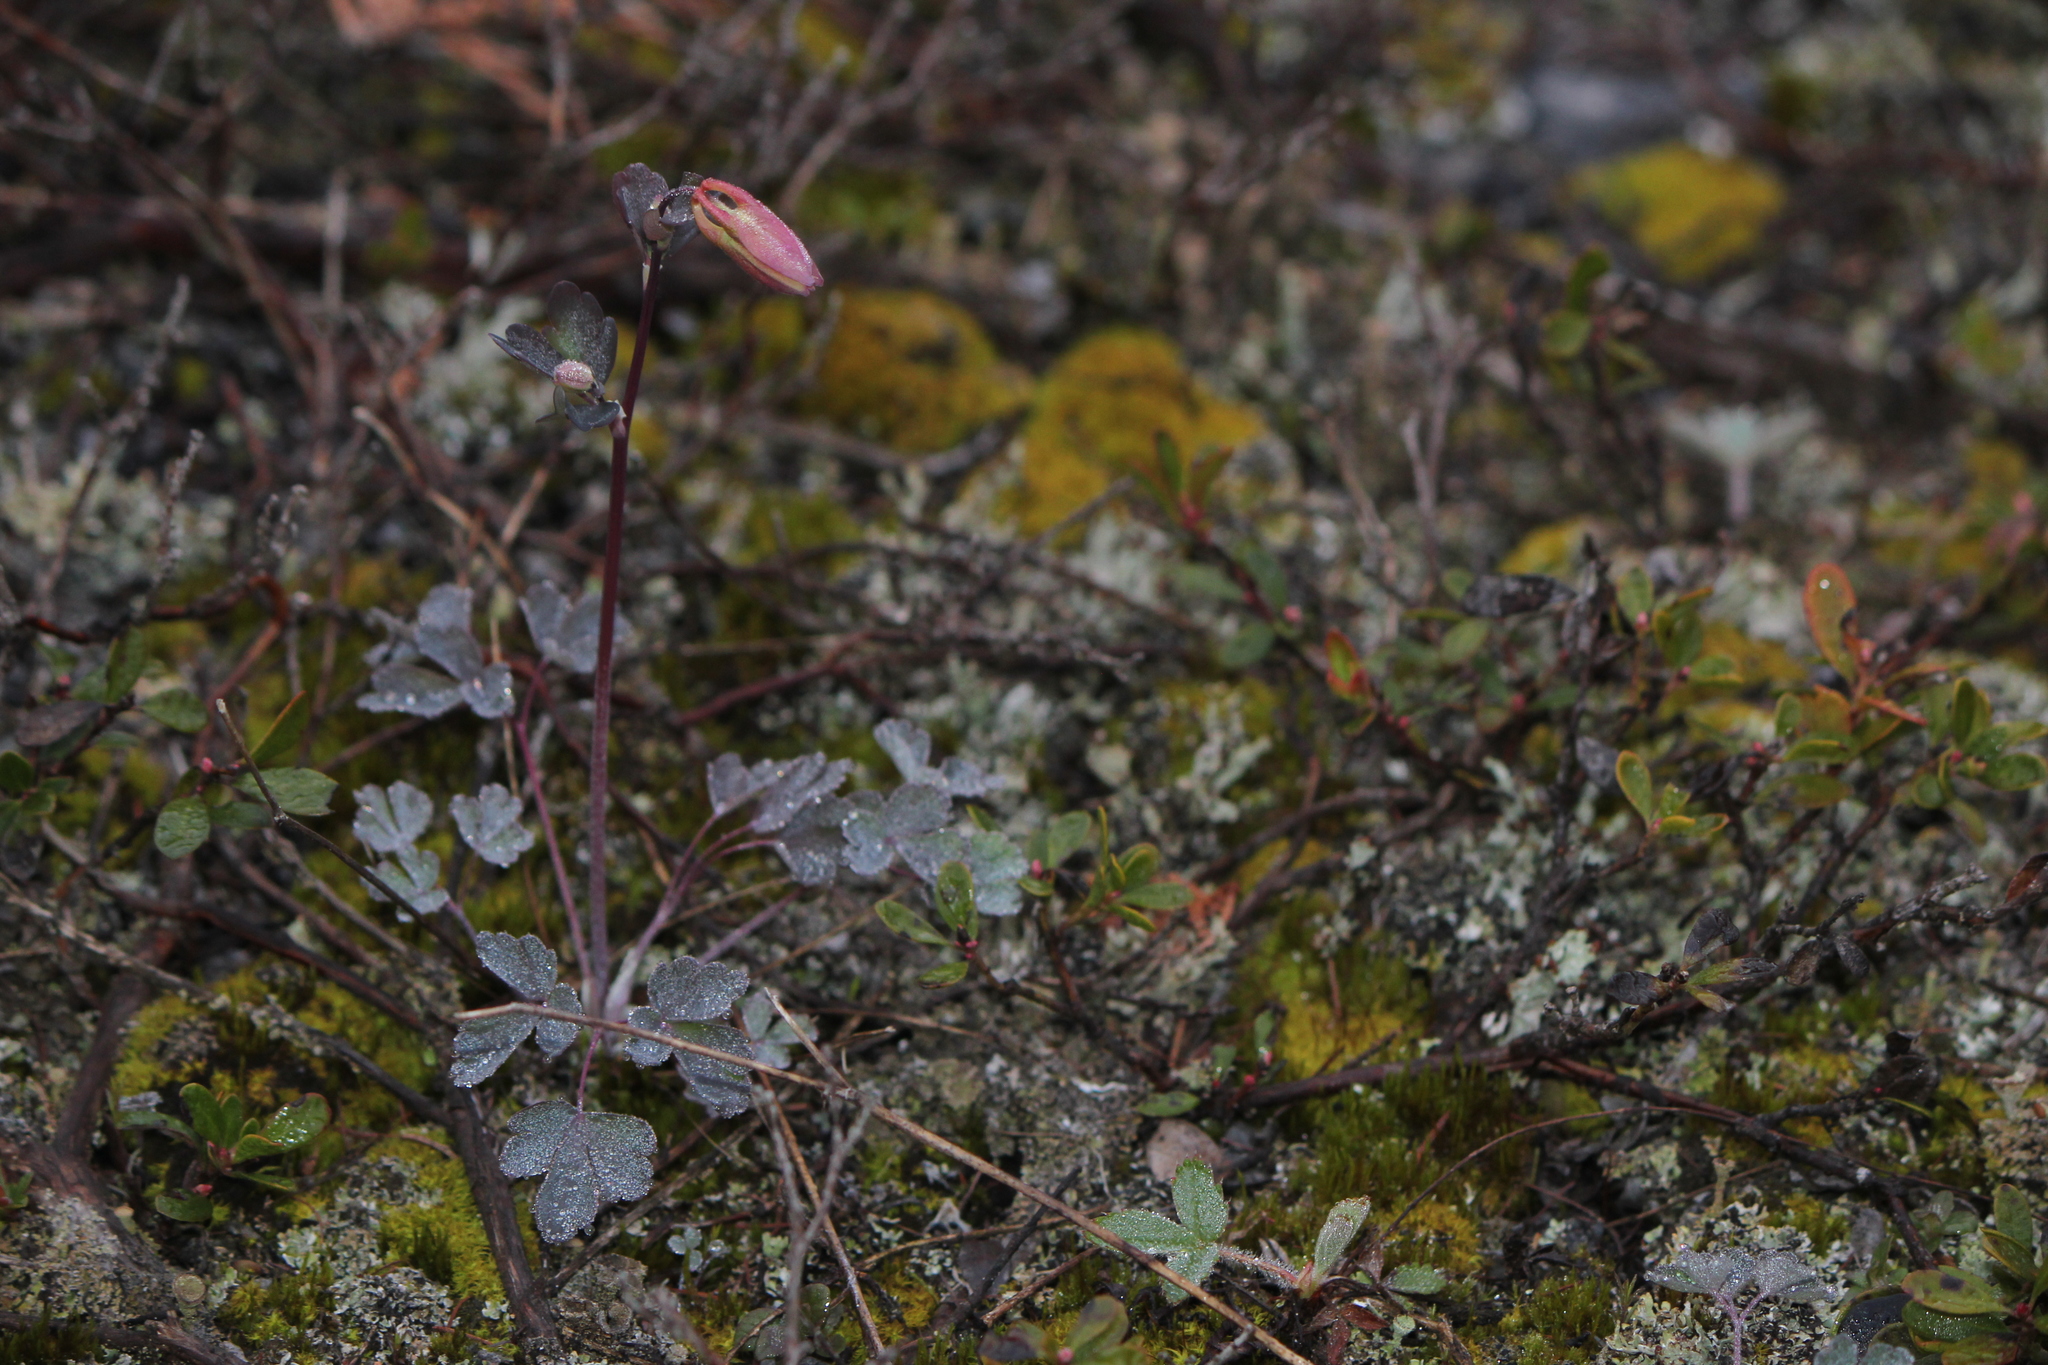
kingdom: Plantae
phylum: Tracheophyta
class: Magnoliopsida
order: Ranunculales
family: Ranunculaceae
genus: Aquilegia
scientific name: Aquilegia canadensis
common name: American columbine
